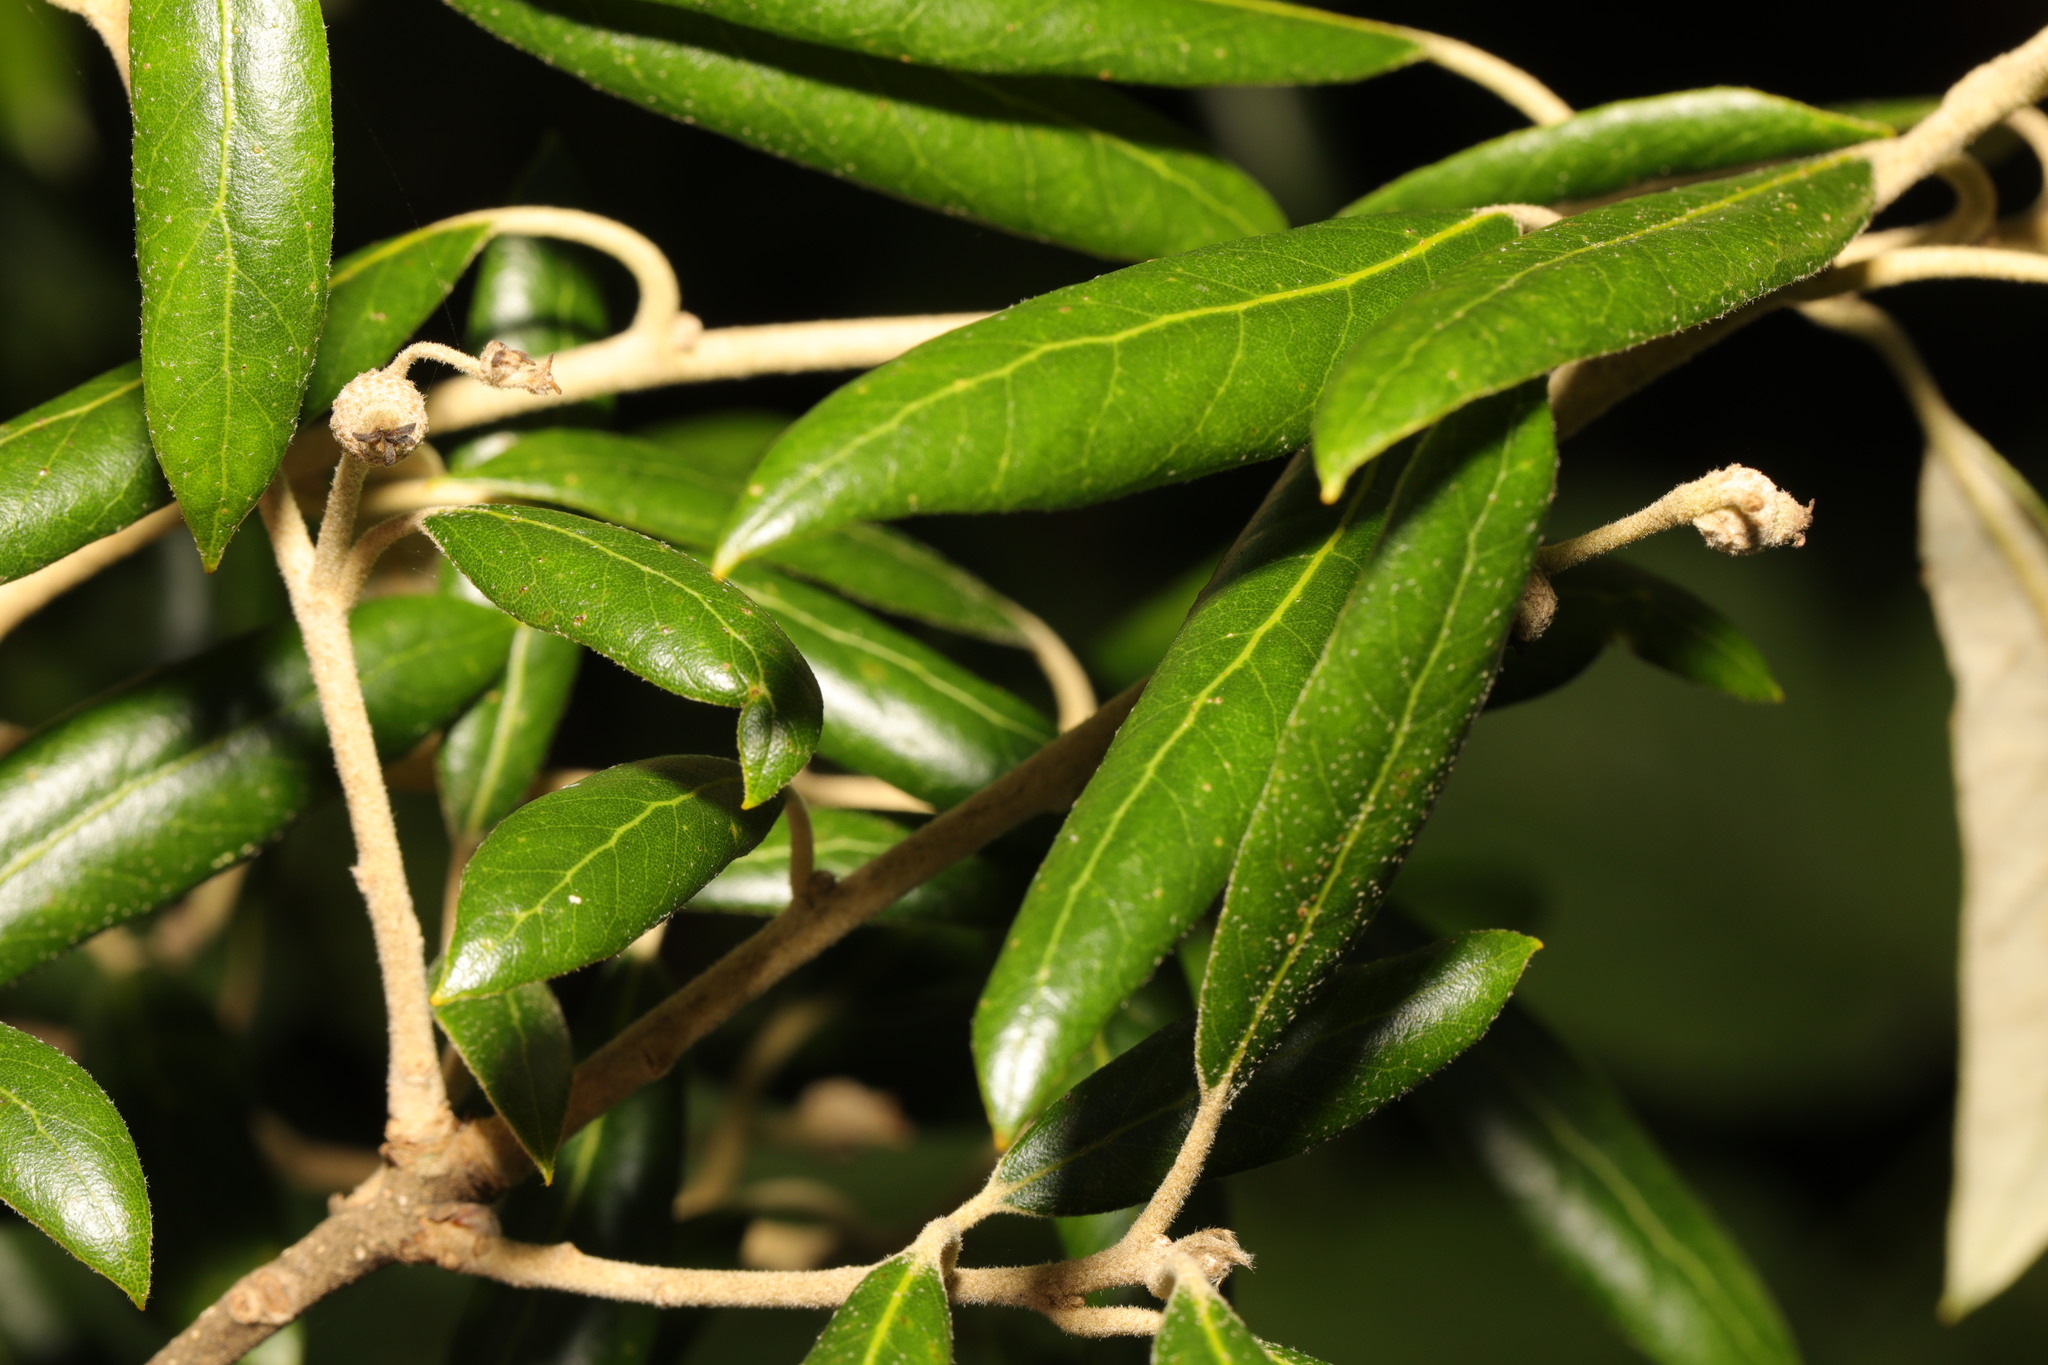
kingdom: Plantae
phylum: Tracheophyta
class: Magnoliopsida
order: Fagales
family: Fagaceae
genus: Quercus
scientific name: Quercus ilex
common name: Evergreen oak
